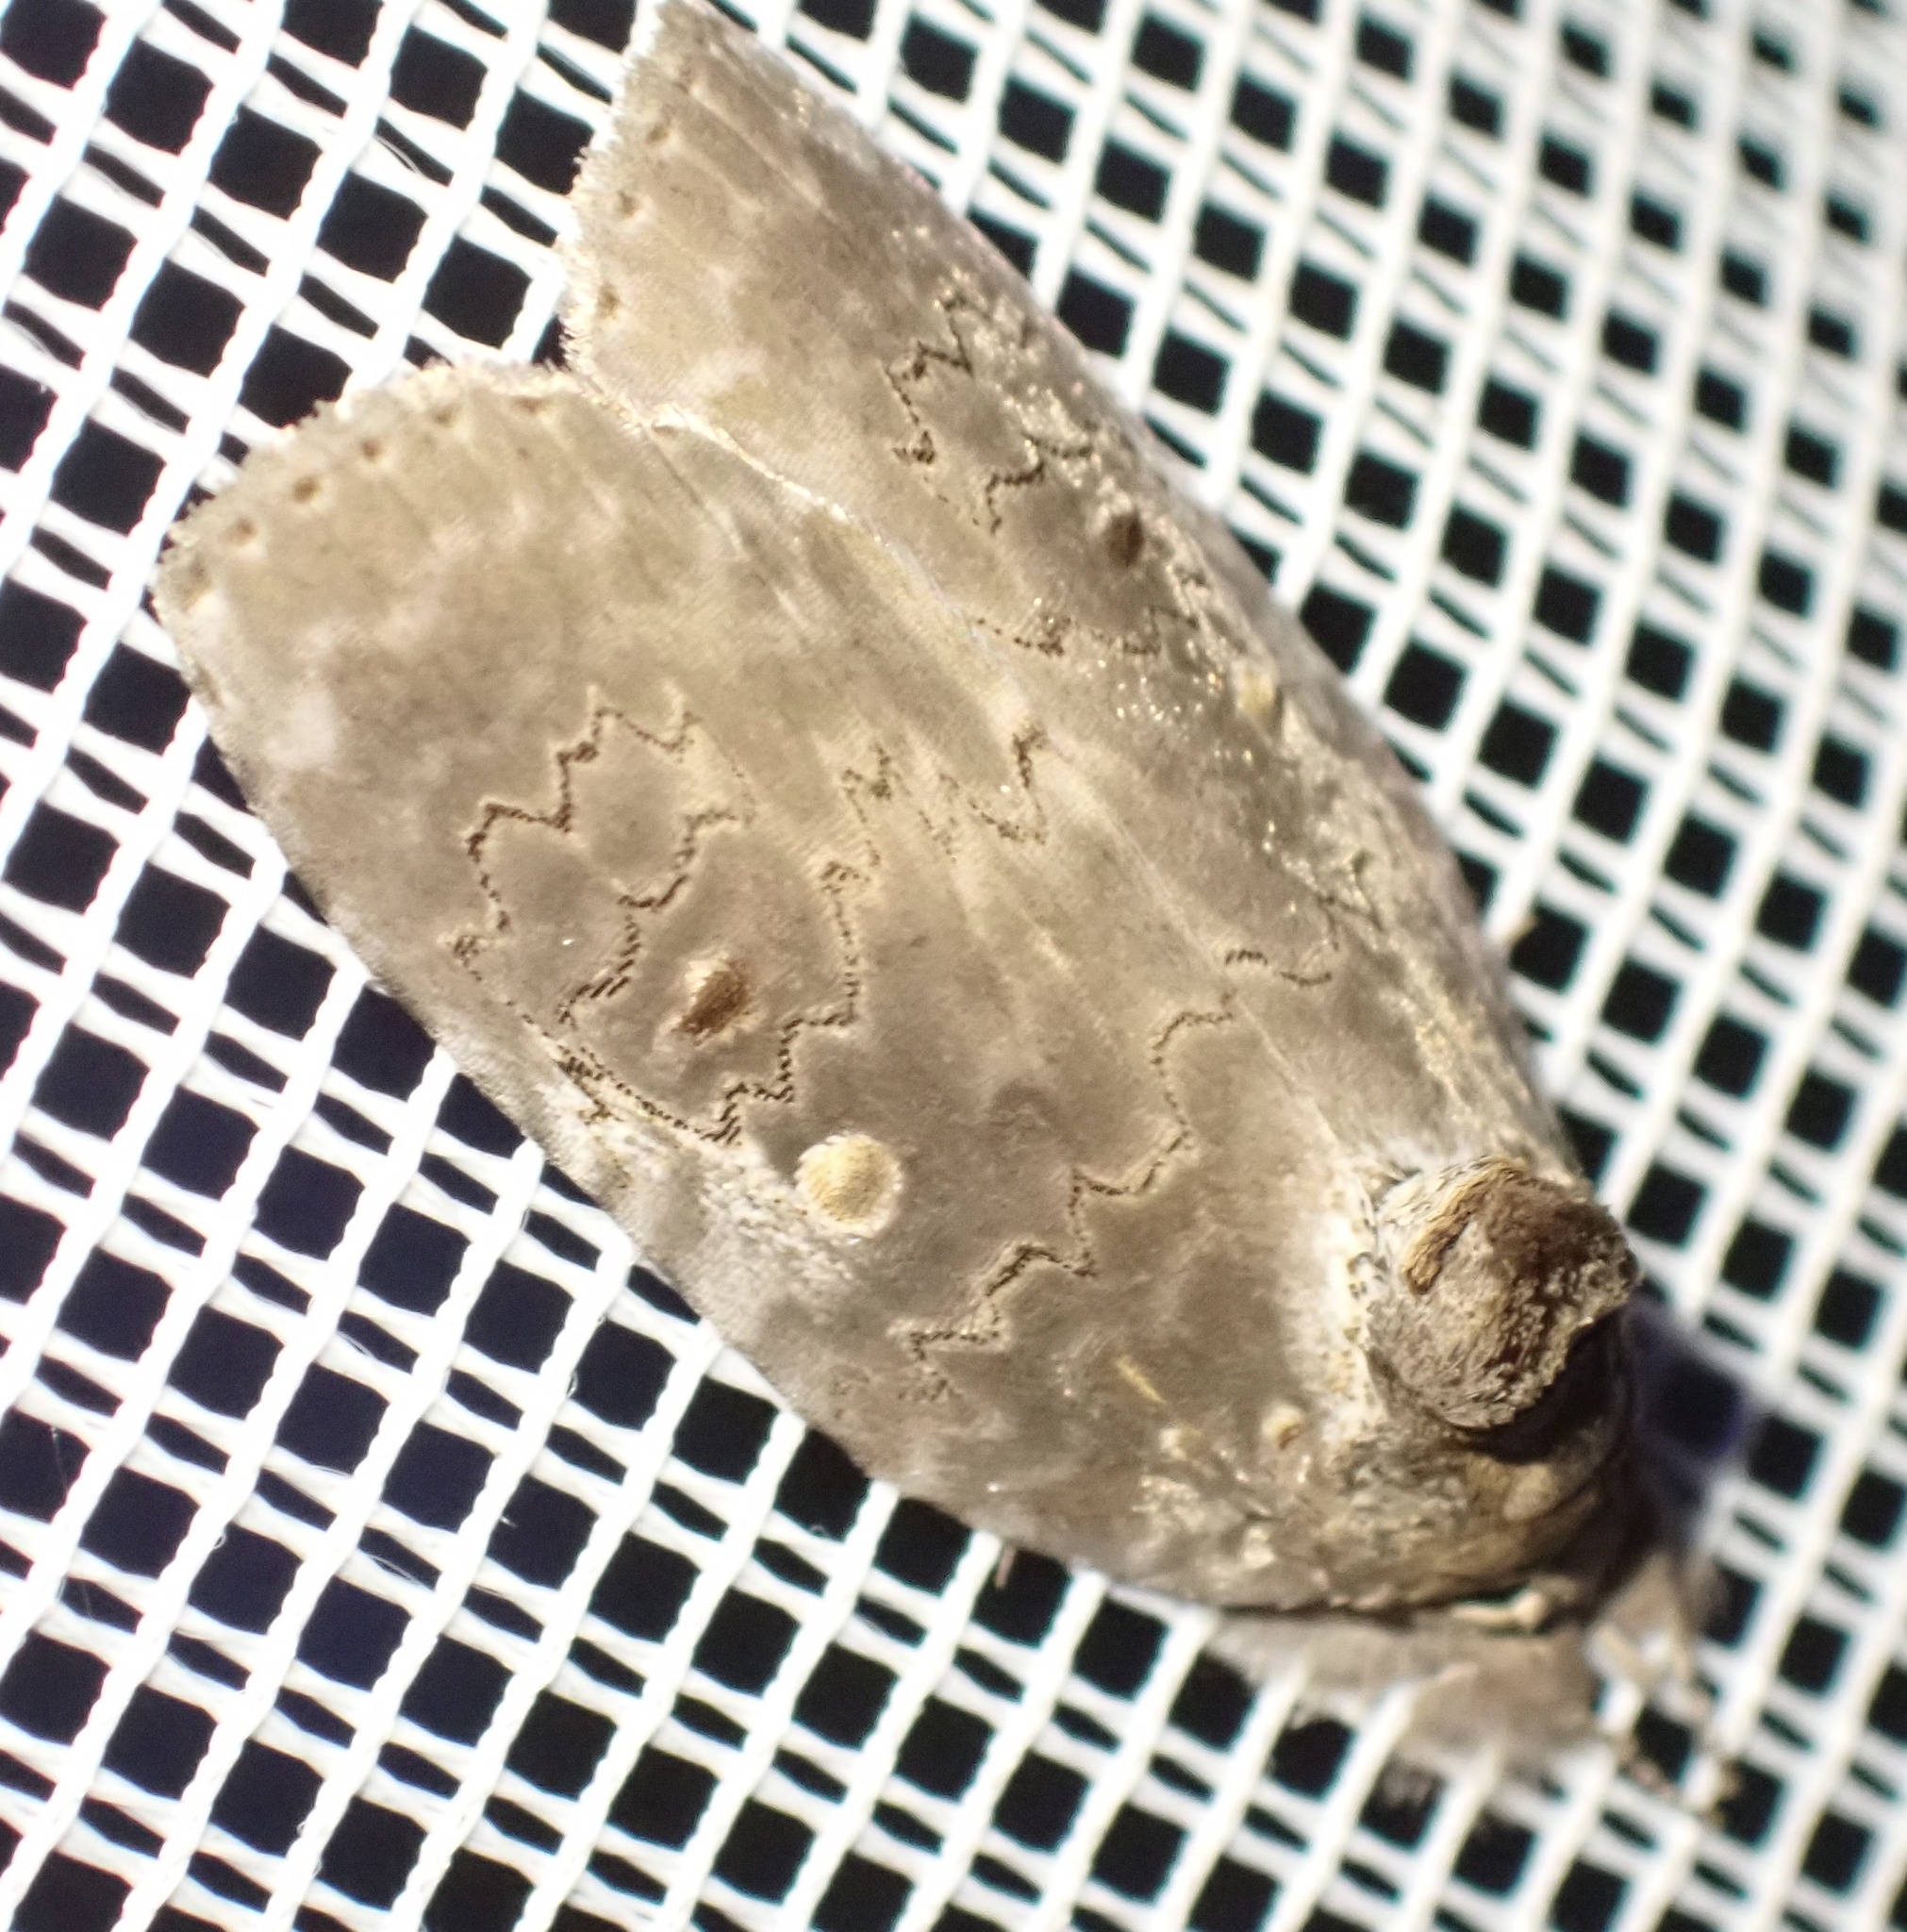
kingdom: Animalia
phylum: Arthropoda
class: Insecta
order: Lepidoptera
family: Noctuidae
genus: Ochthophora
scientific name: Ochthophora sericina
